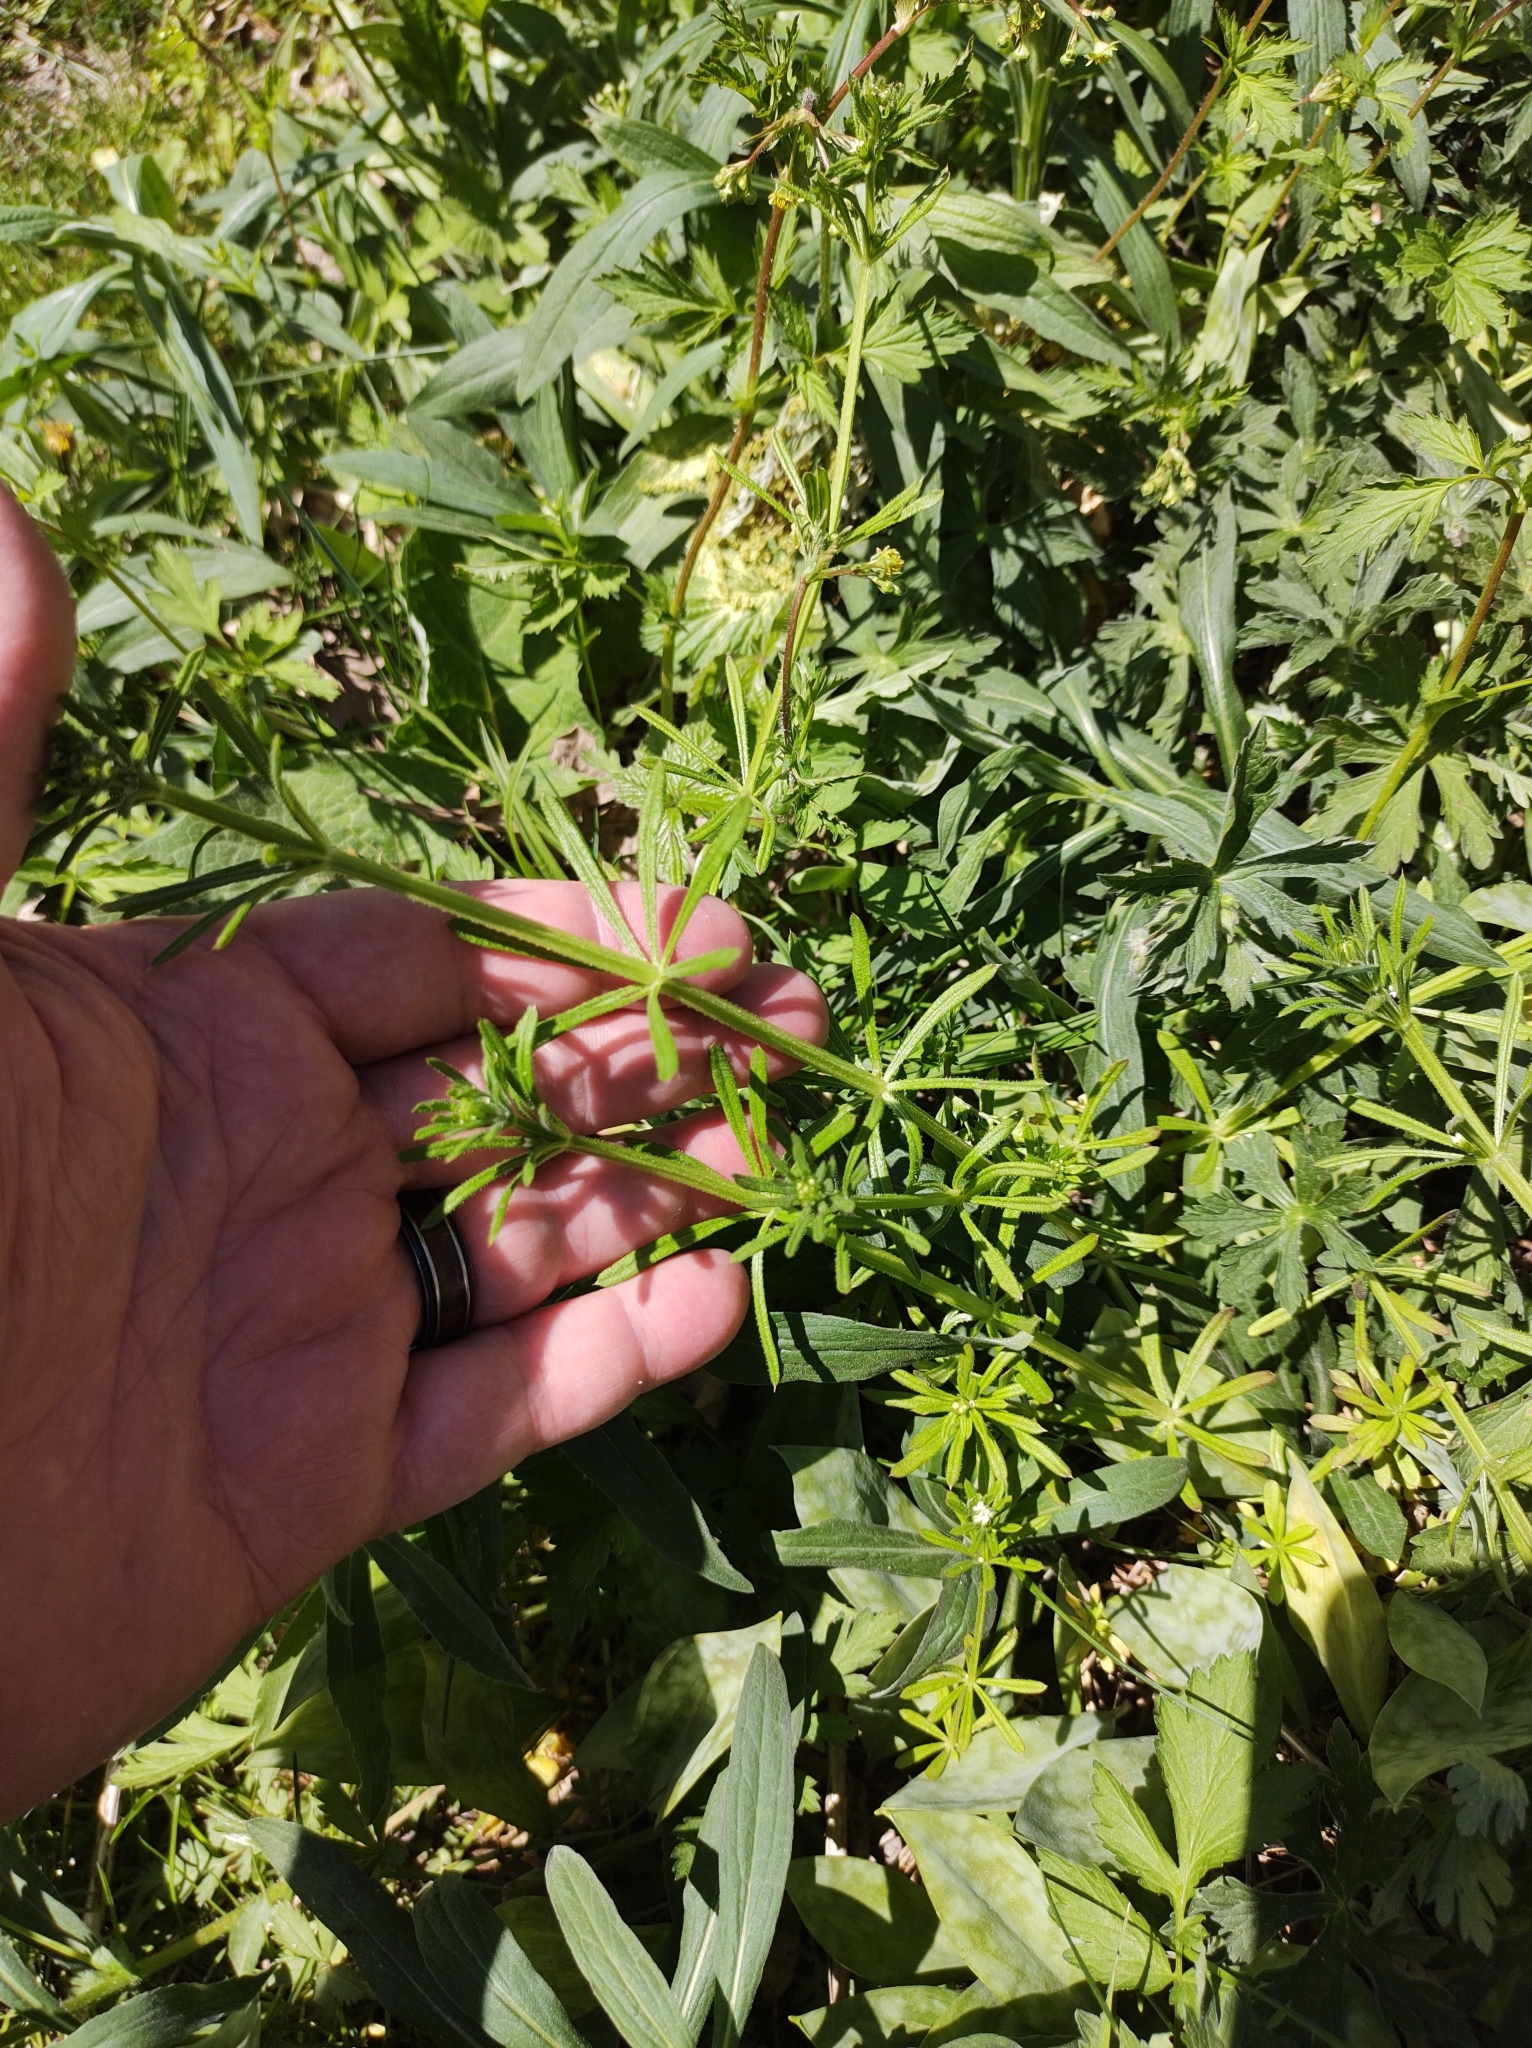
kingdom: Plantae
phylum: Tracheophyta
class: Magnoliopsida
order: Gentianales
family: Rubiaceae
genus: Galium
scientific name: Galium aparine
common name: Cleavers
